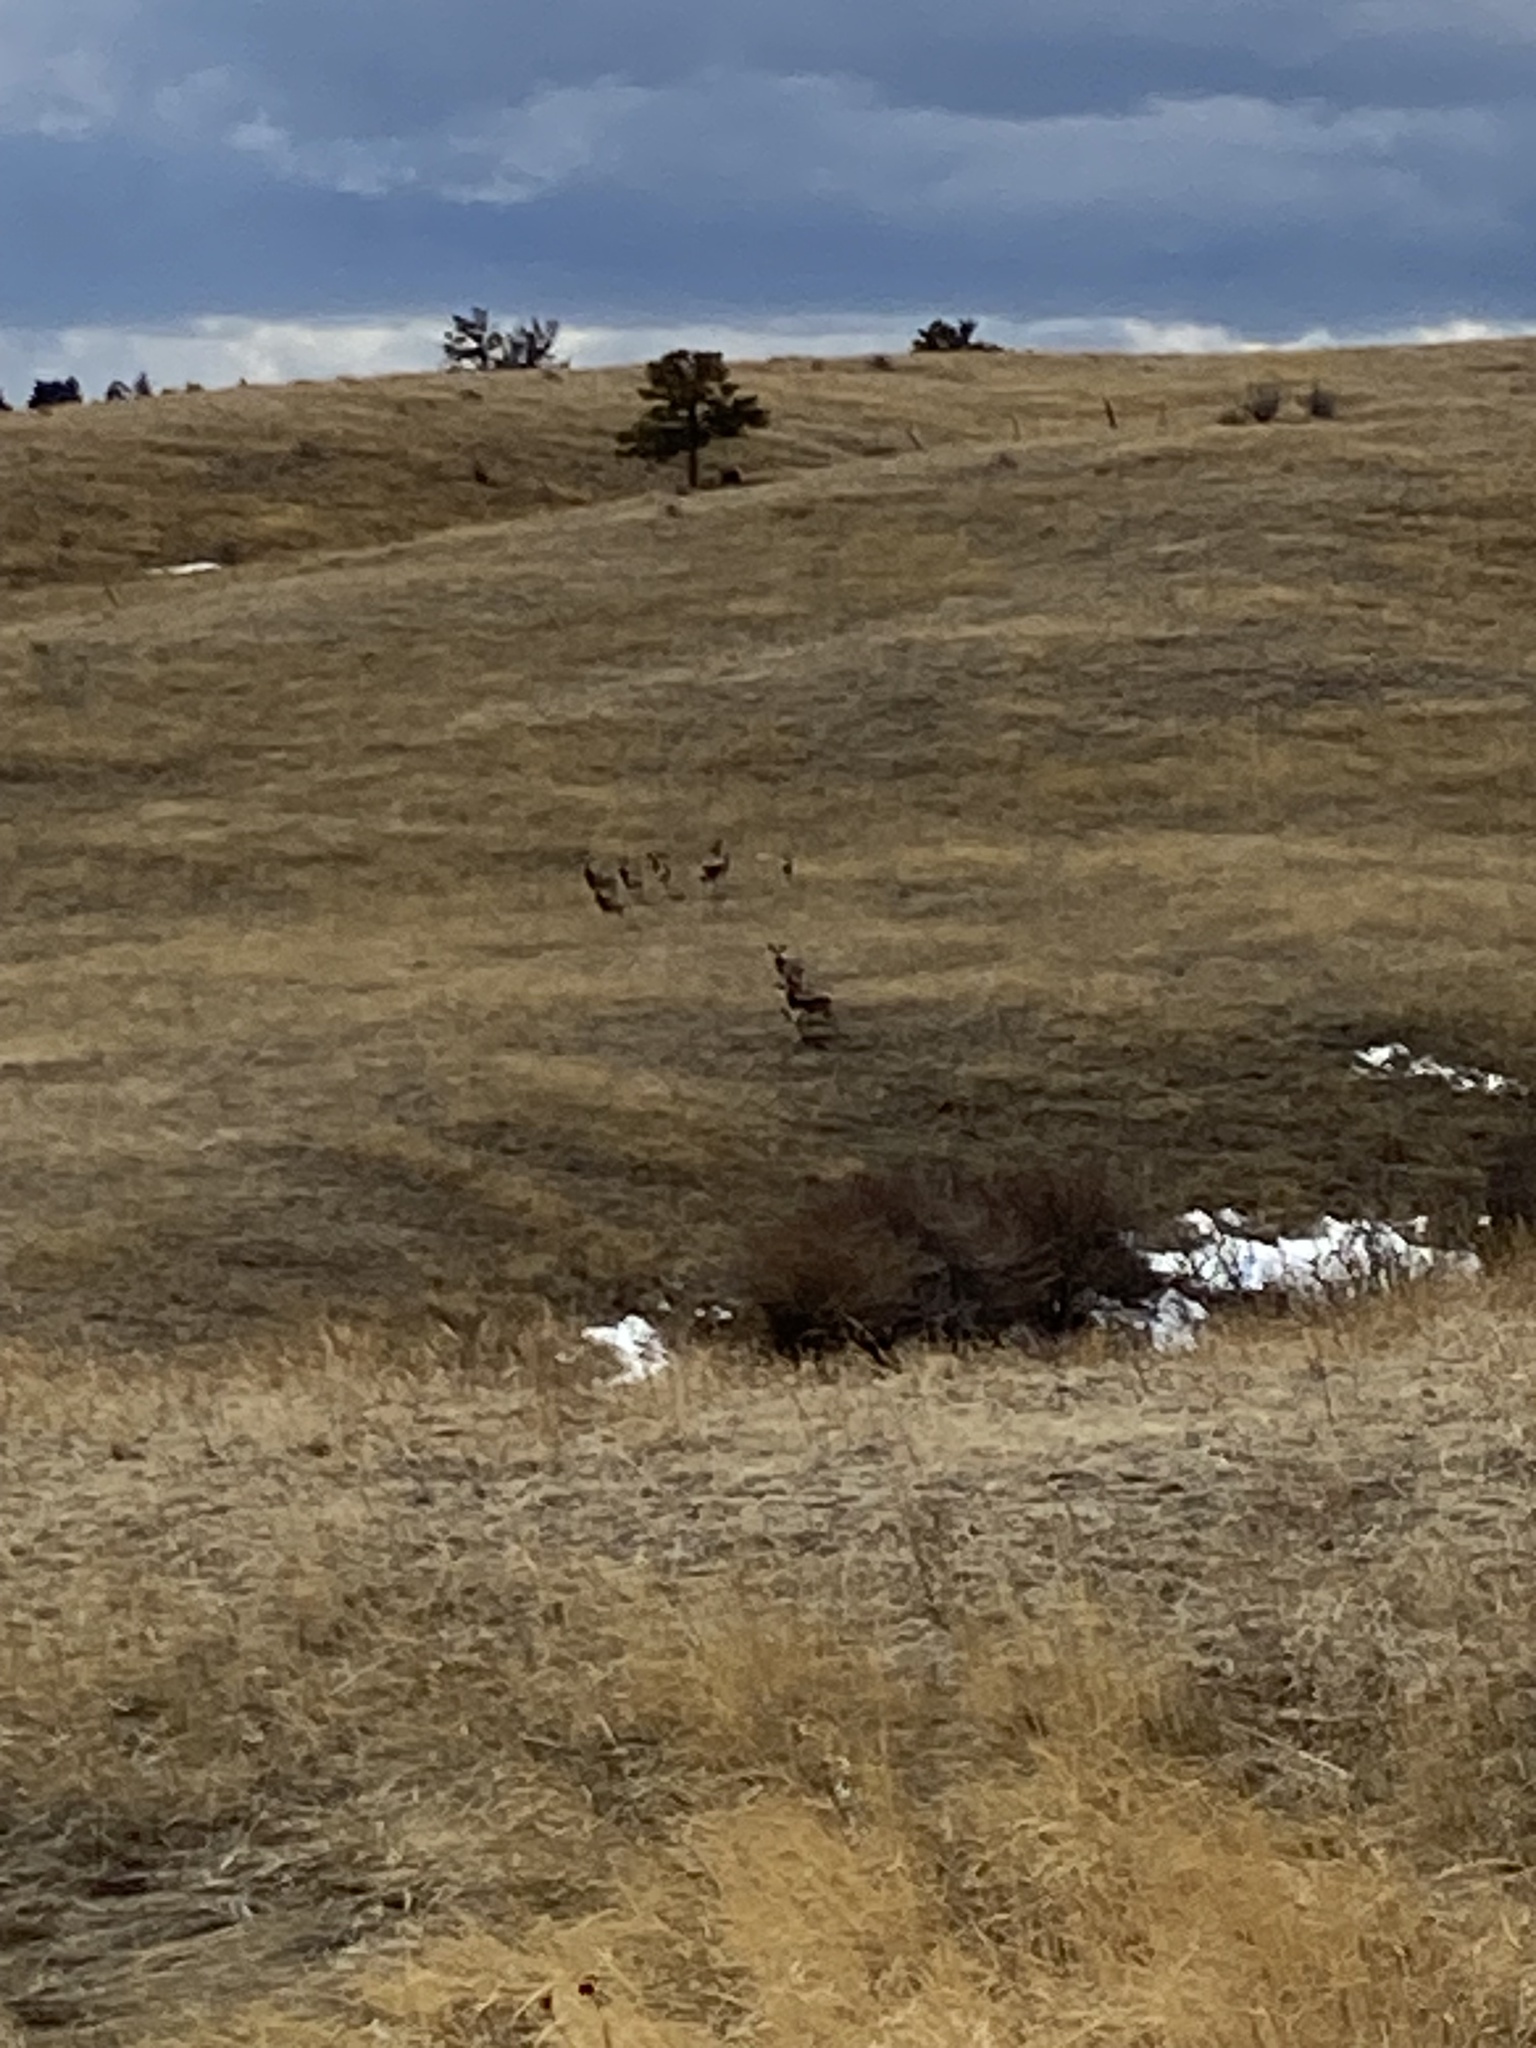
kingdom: Animalia
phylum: Chordata
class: Mammalia
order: Artiodactyla
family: Cervidae
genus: Odocoileus
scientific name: Odocoileus hemionus
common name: Mule deer
